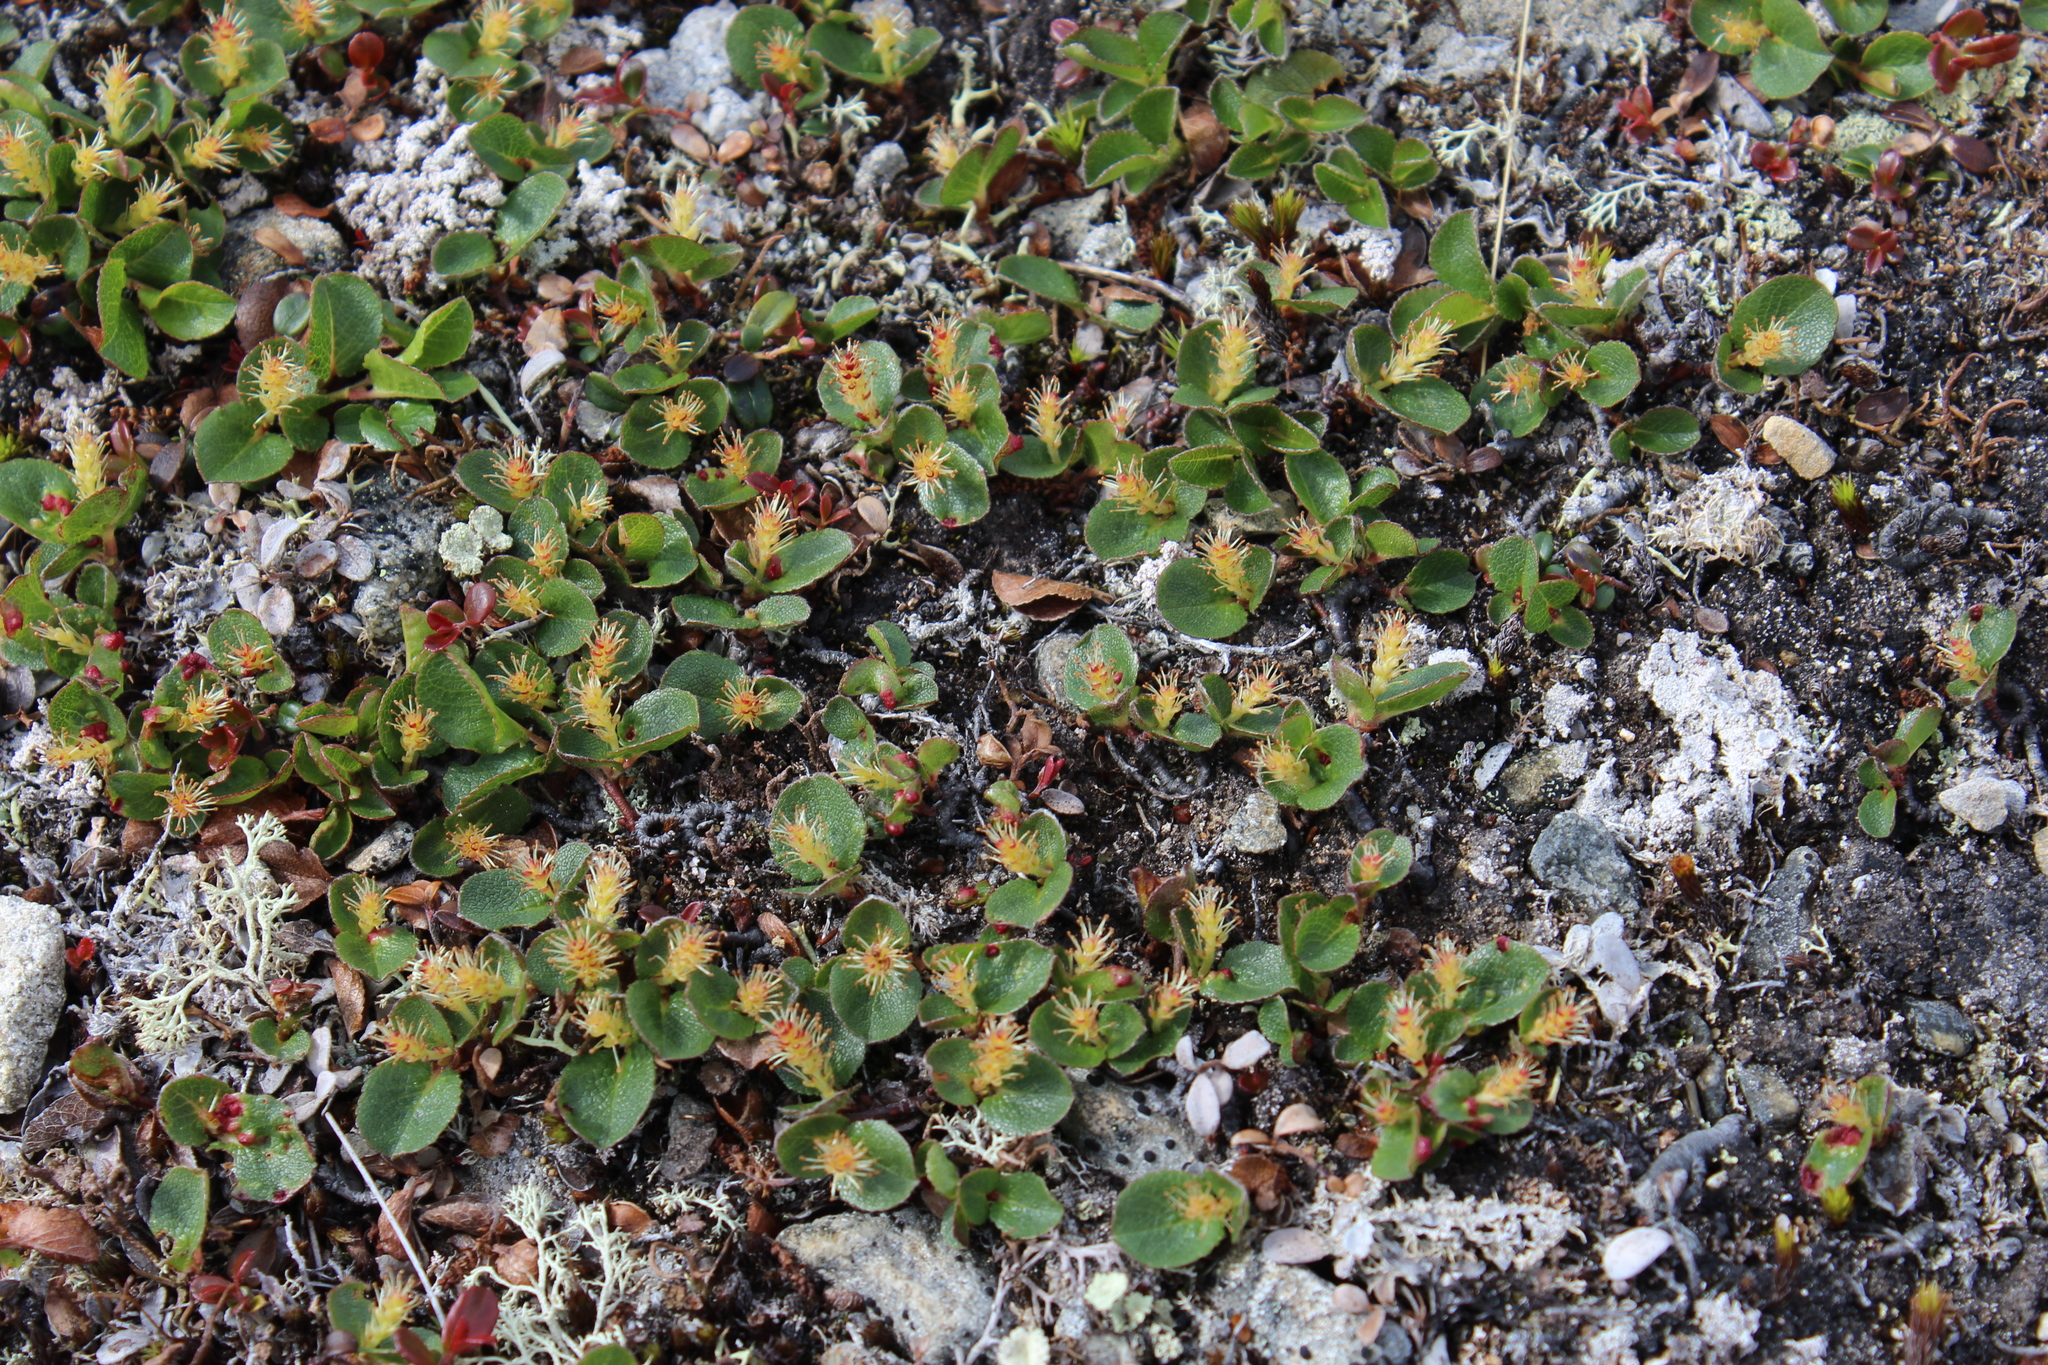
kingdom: Plantae
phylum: Tracheophyta
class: Magnoliopsida
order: Malpighiales
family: Salicaceae
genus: Salix
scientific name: Salix herbacea
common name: Dwarf willow
